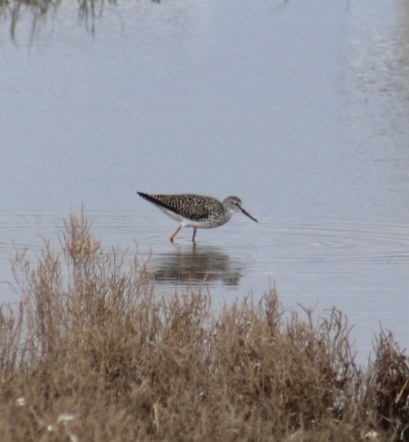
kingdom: Animalia
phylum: Chordata
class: Aves
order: Charadriiformes
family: Scolopacidae
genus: Tringa
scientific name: Tringa melanoleuca
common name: Greater yellowlegs
